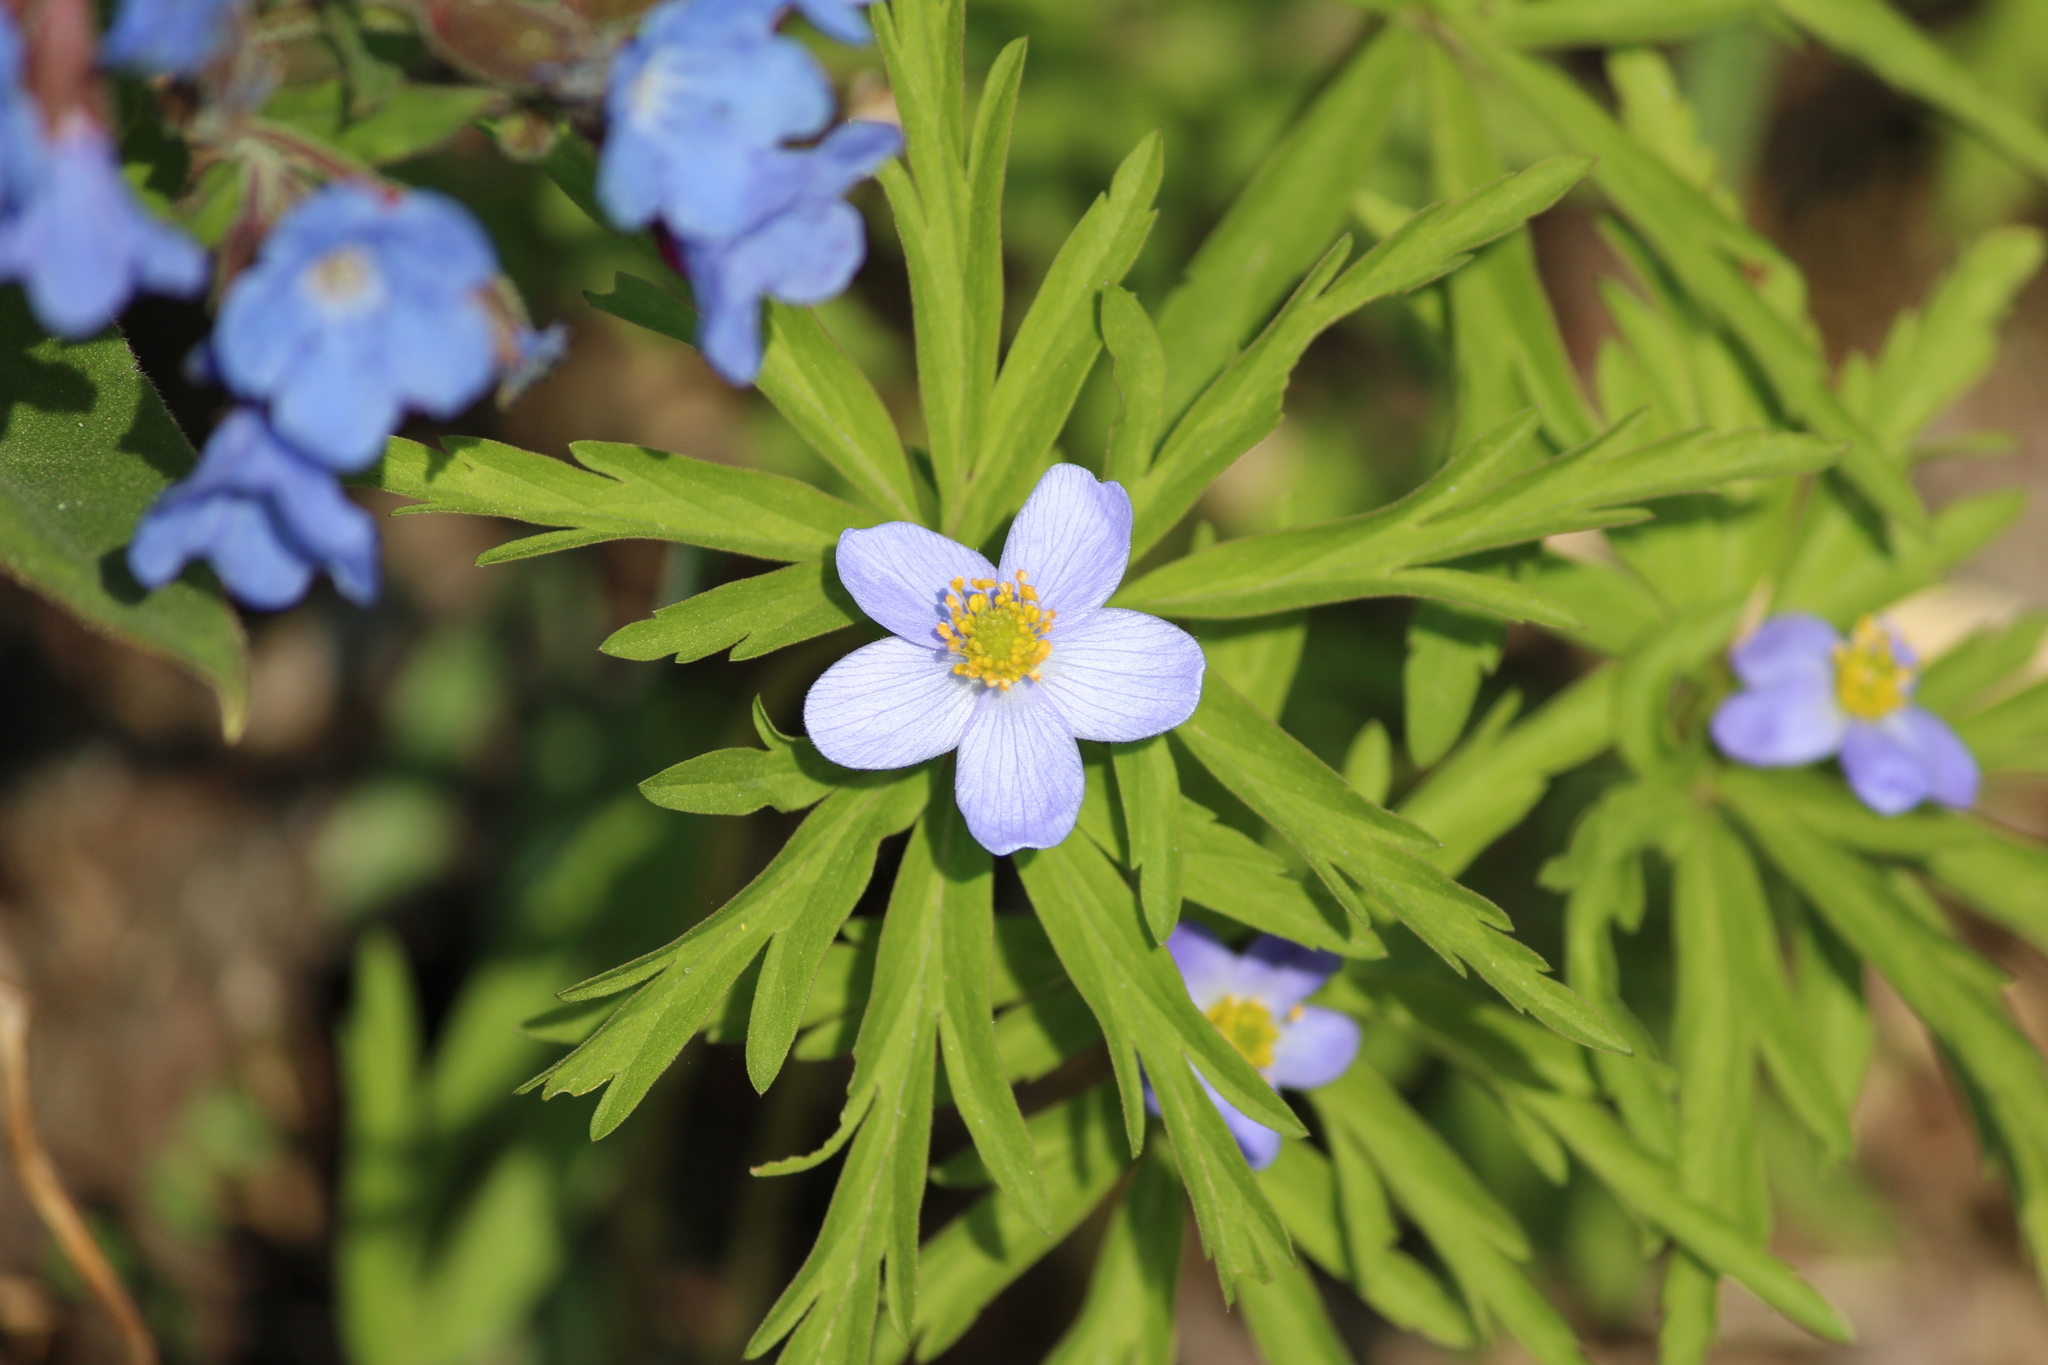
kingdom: Plantae
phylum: Tracheophyta
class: Magnoliopsida
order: Ranunculales
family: Ranunculaceae
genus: Anemone
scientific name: Anemone caerulea
